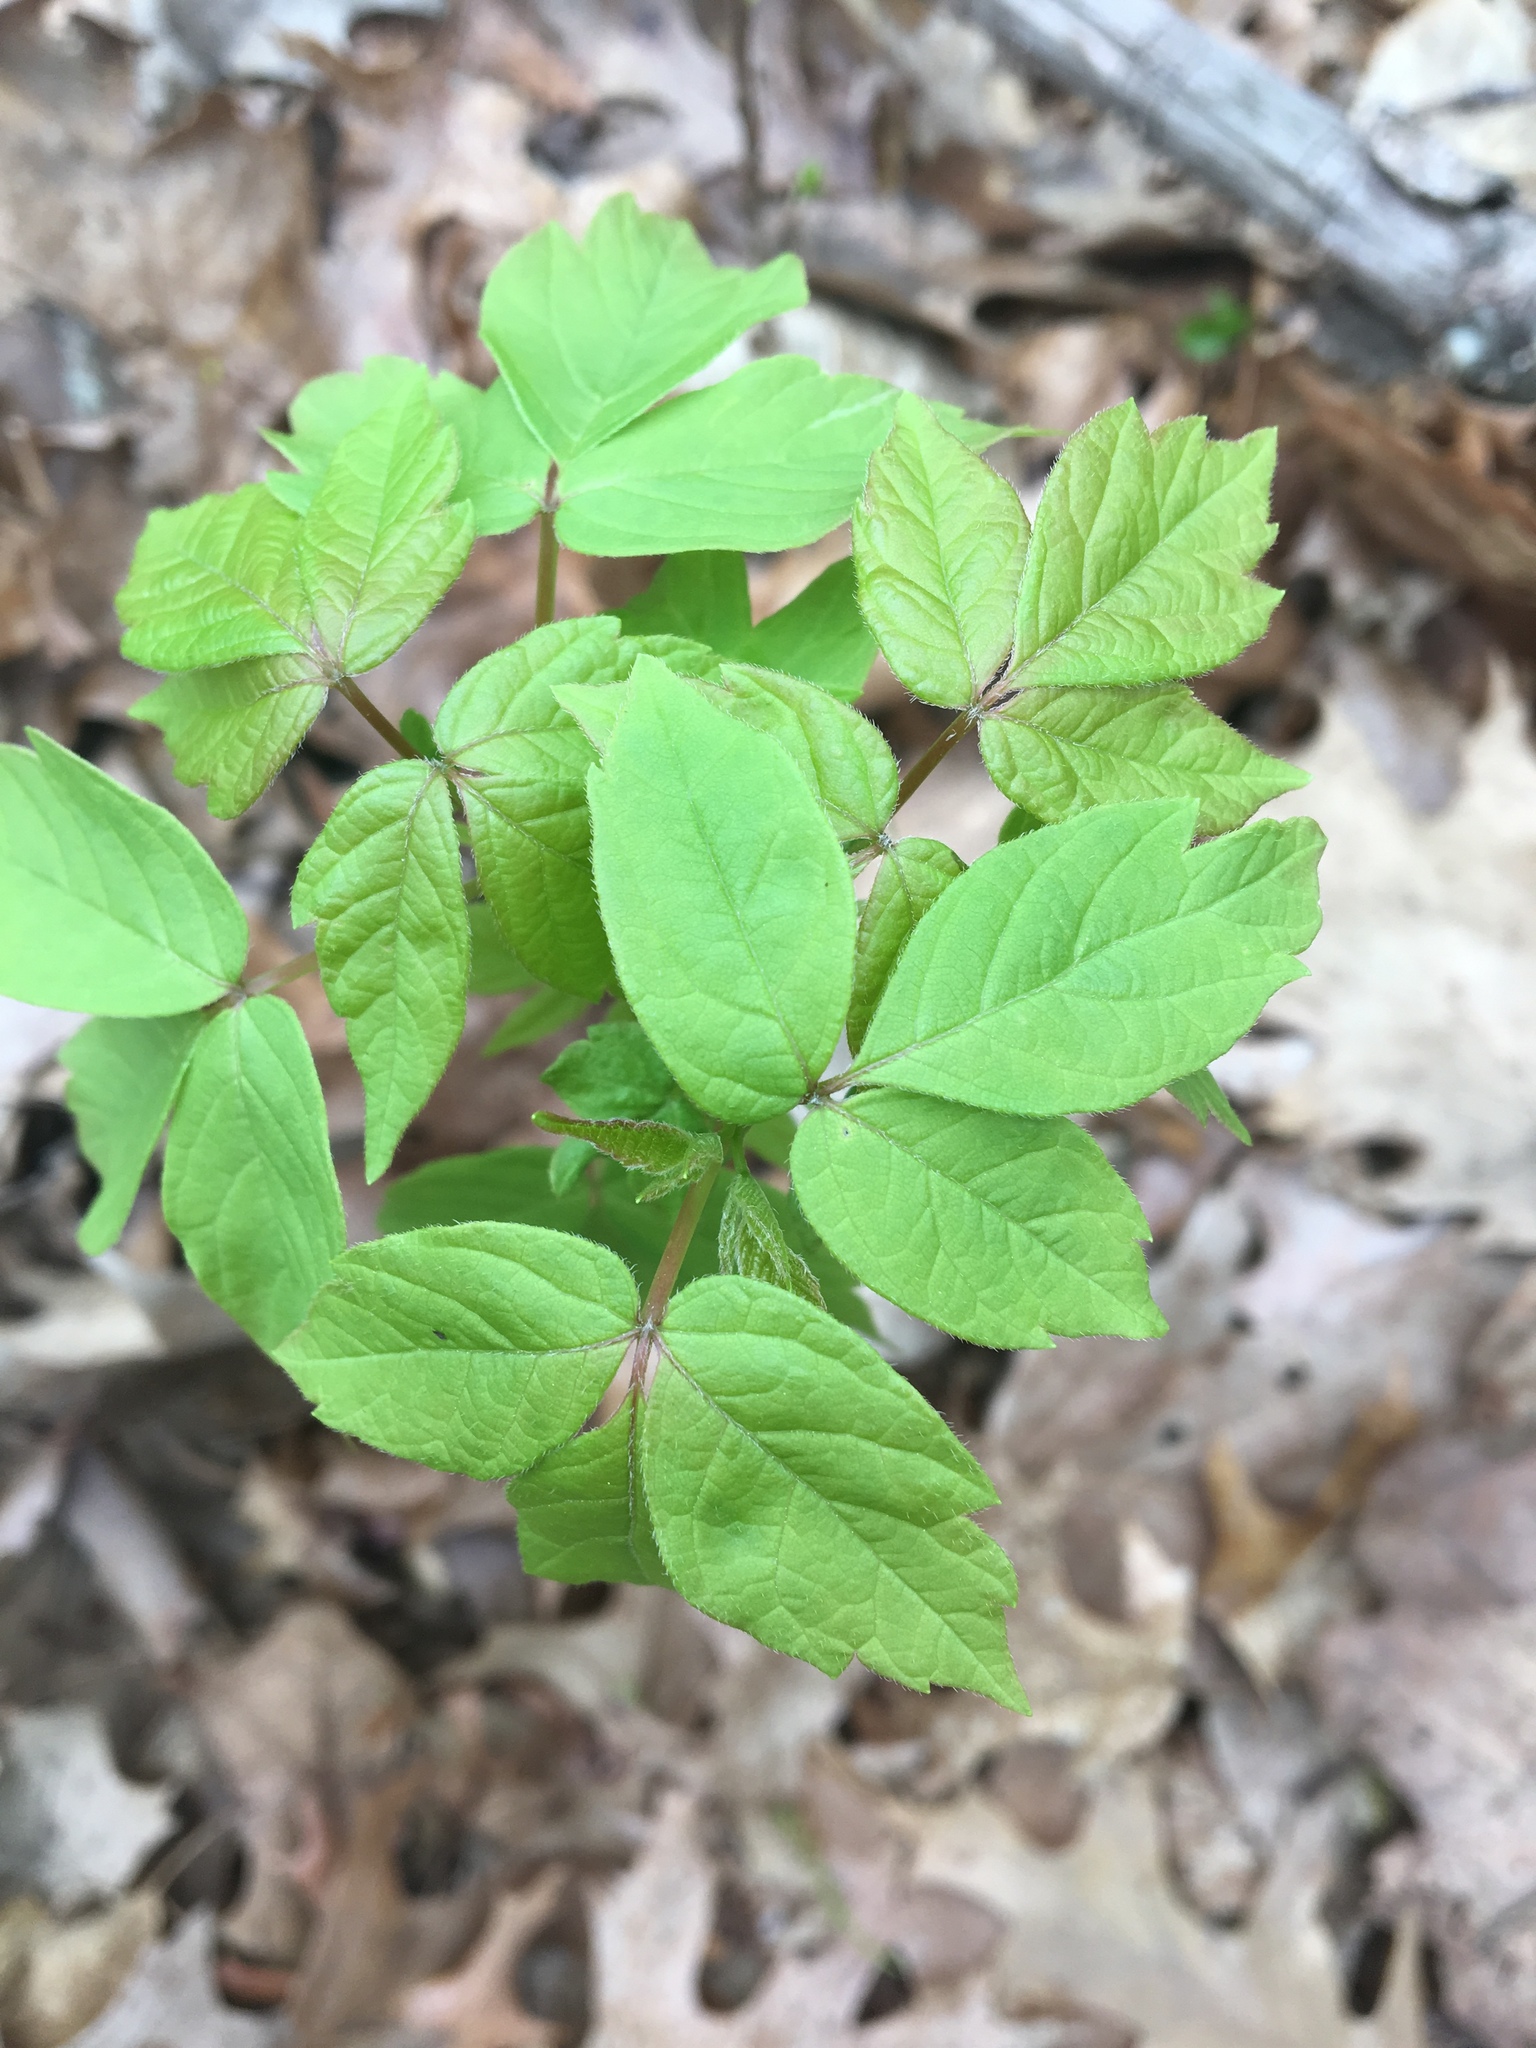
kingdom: Plantae
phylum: Tracheophyta
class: Magnoliopsida
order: Sapindales
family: Sapindaceae
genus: Acer
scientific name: Acer negundo
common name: Ashleaf maple
